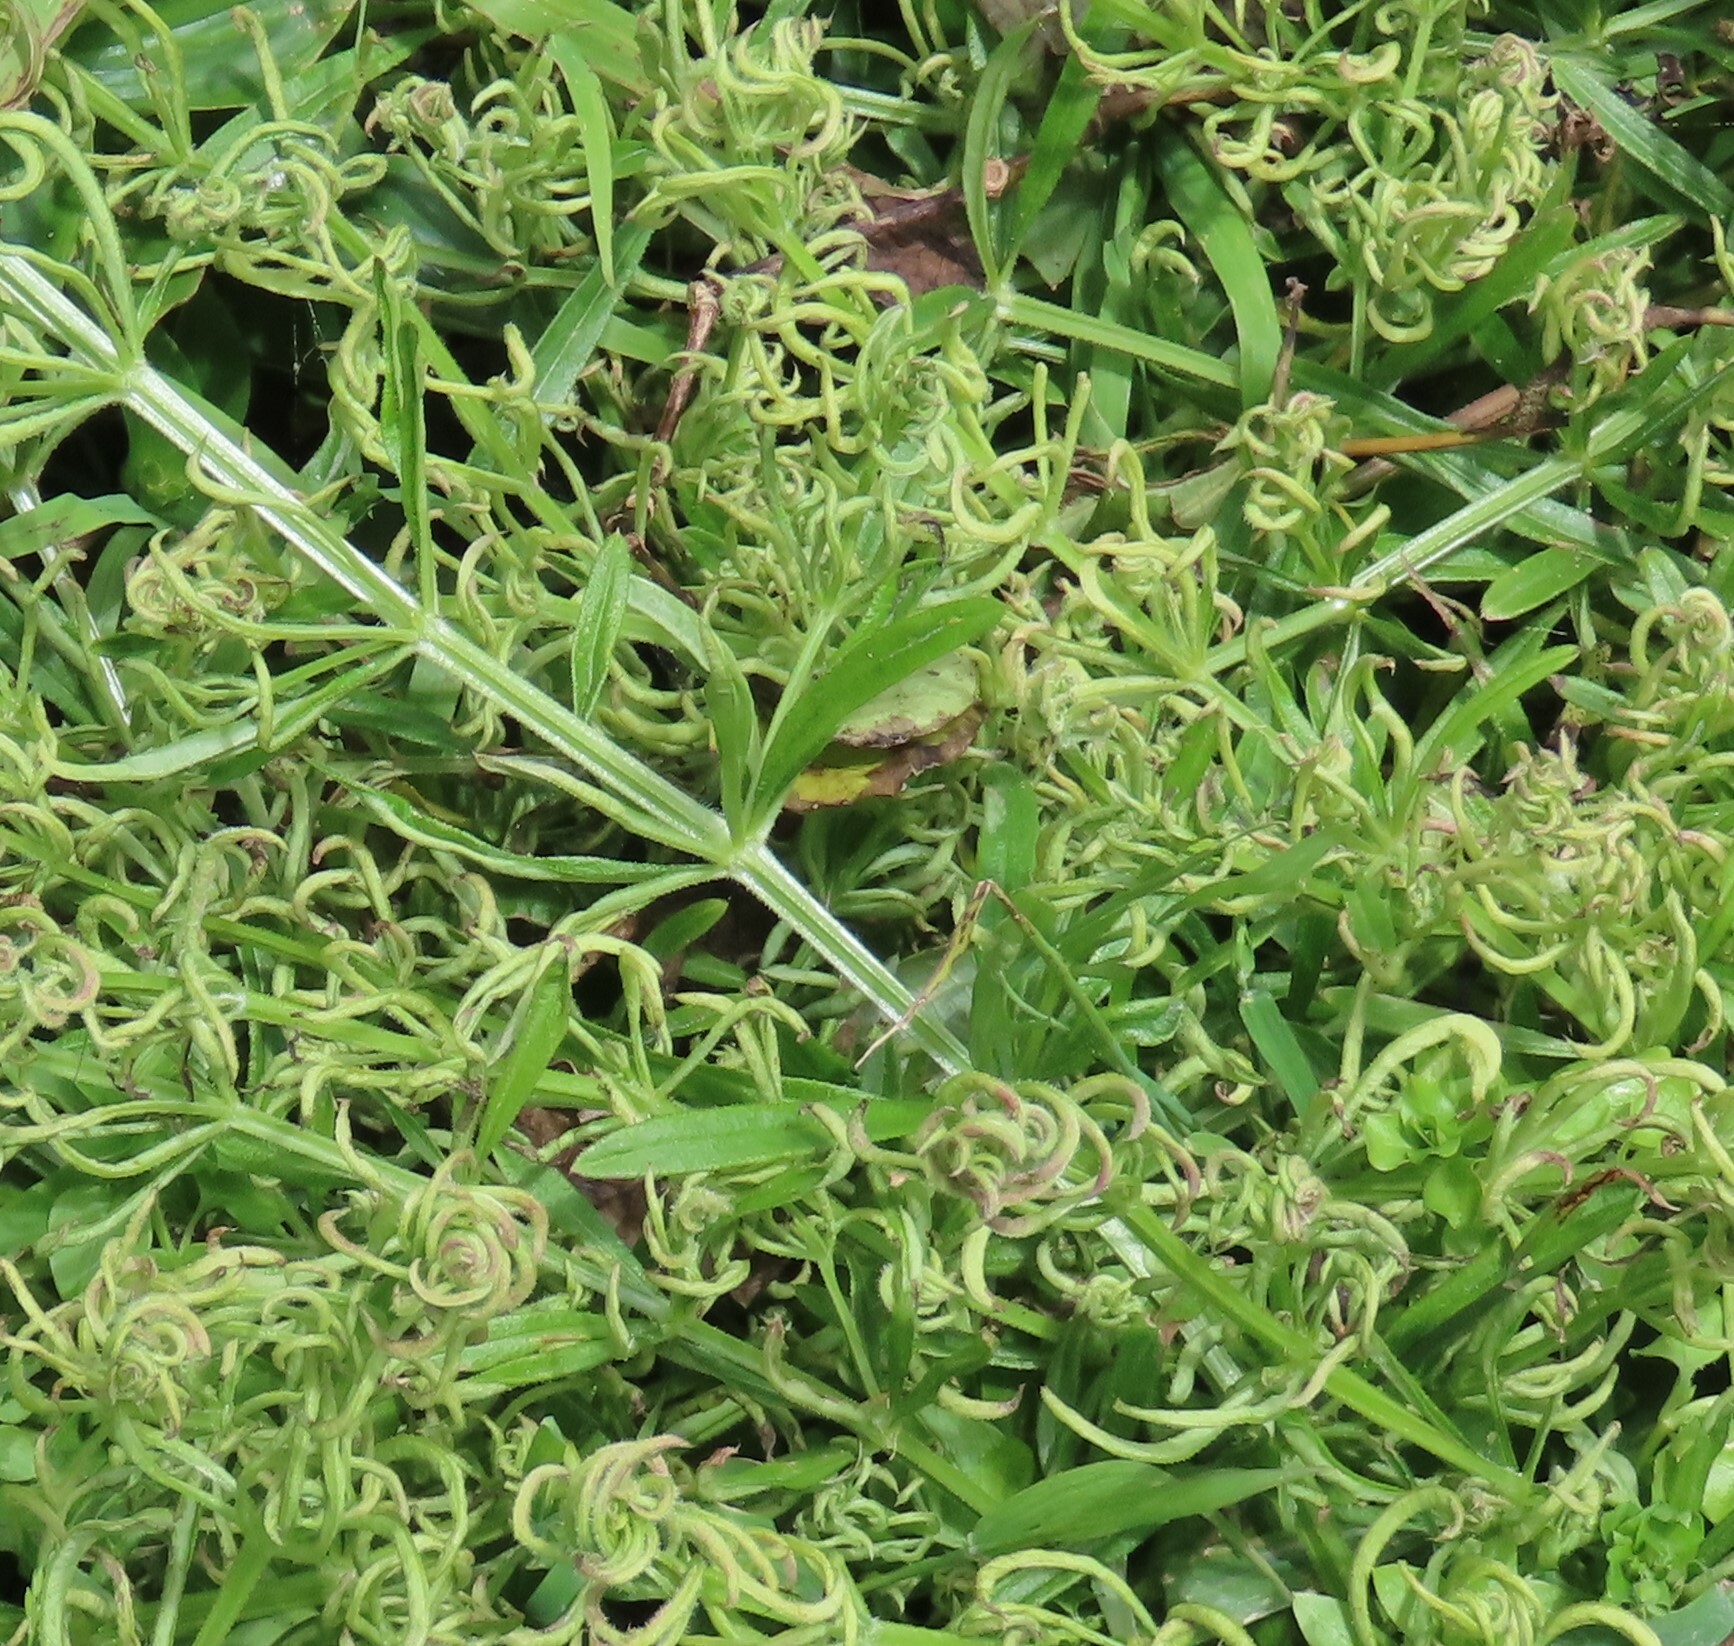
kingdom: Animalia
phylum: Arthropoda
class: Arachnida
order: Trombidiformes
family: Eriophyidae
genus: Cecidophyes
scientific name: Cecidophyes rouhollahi
